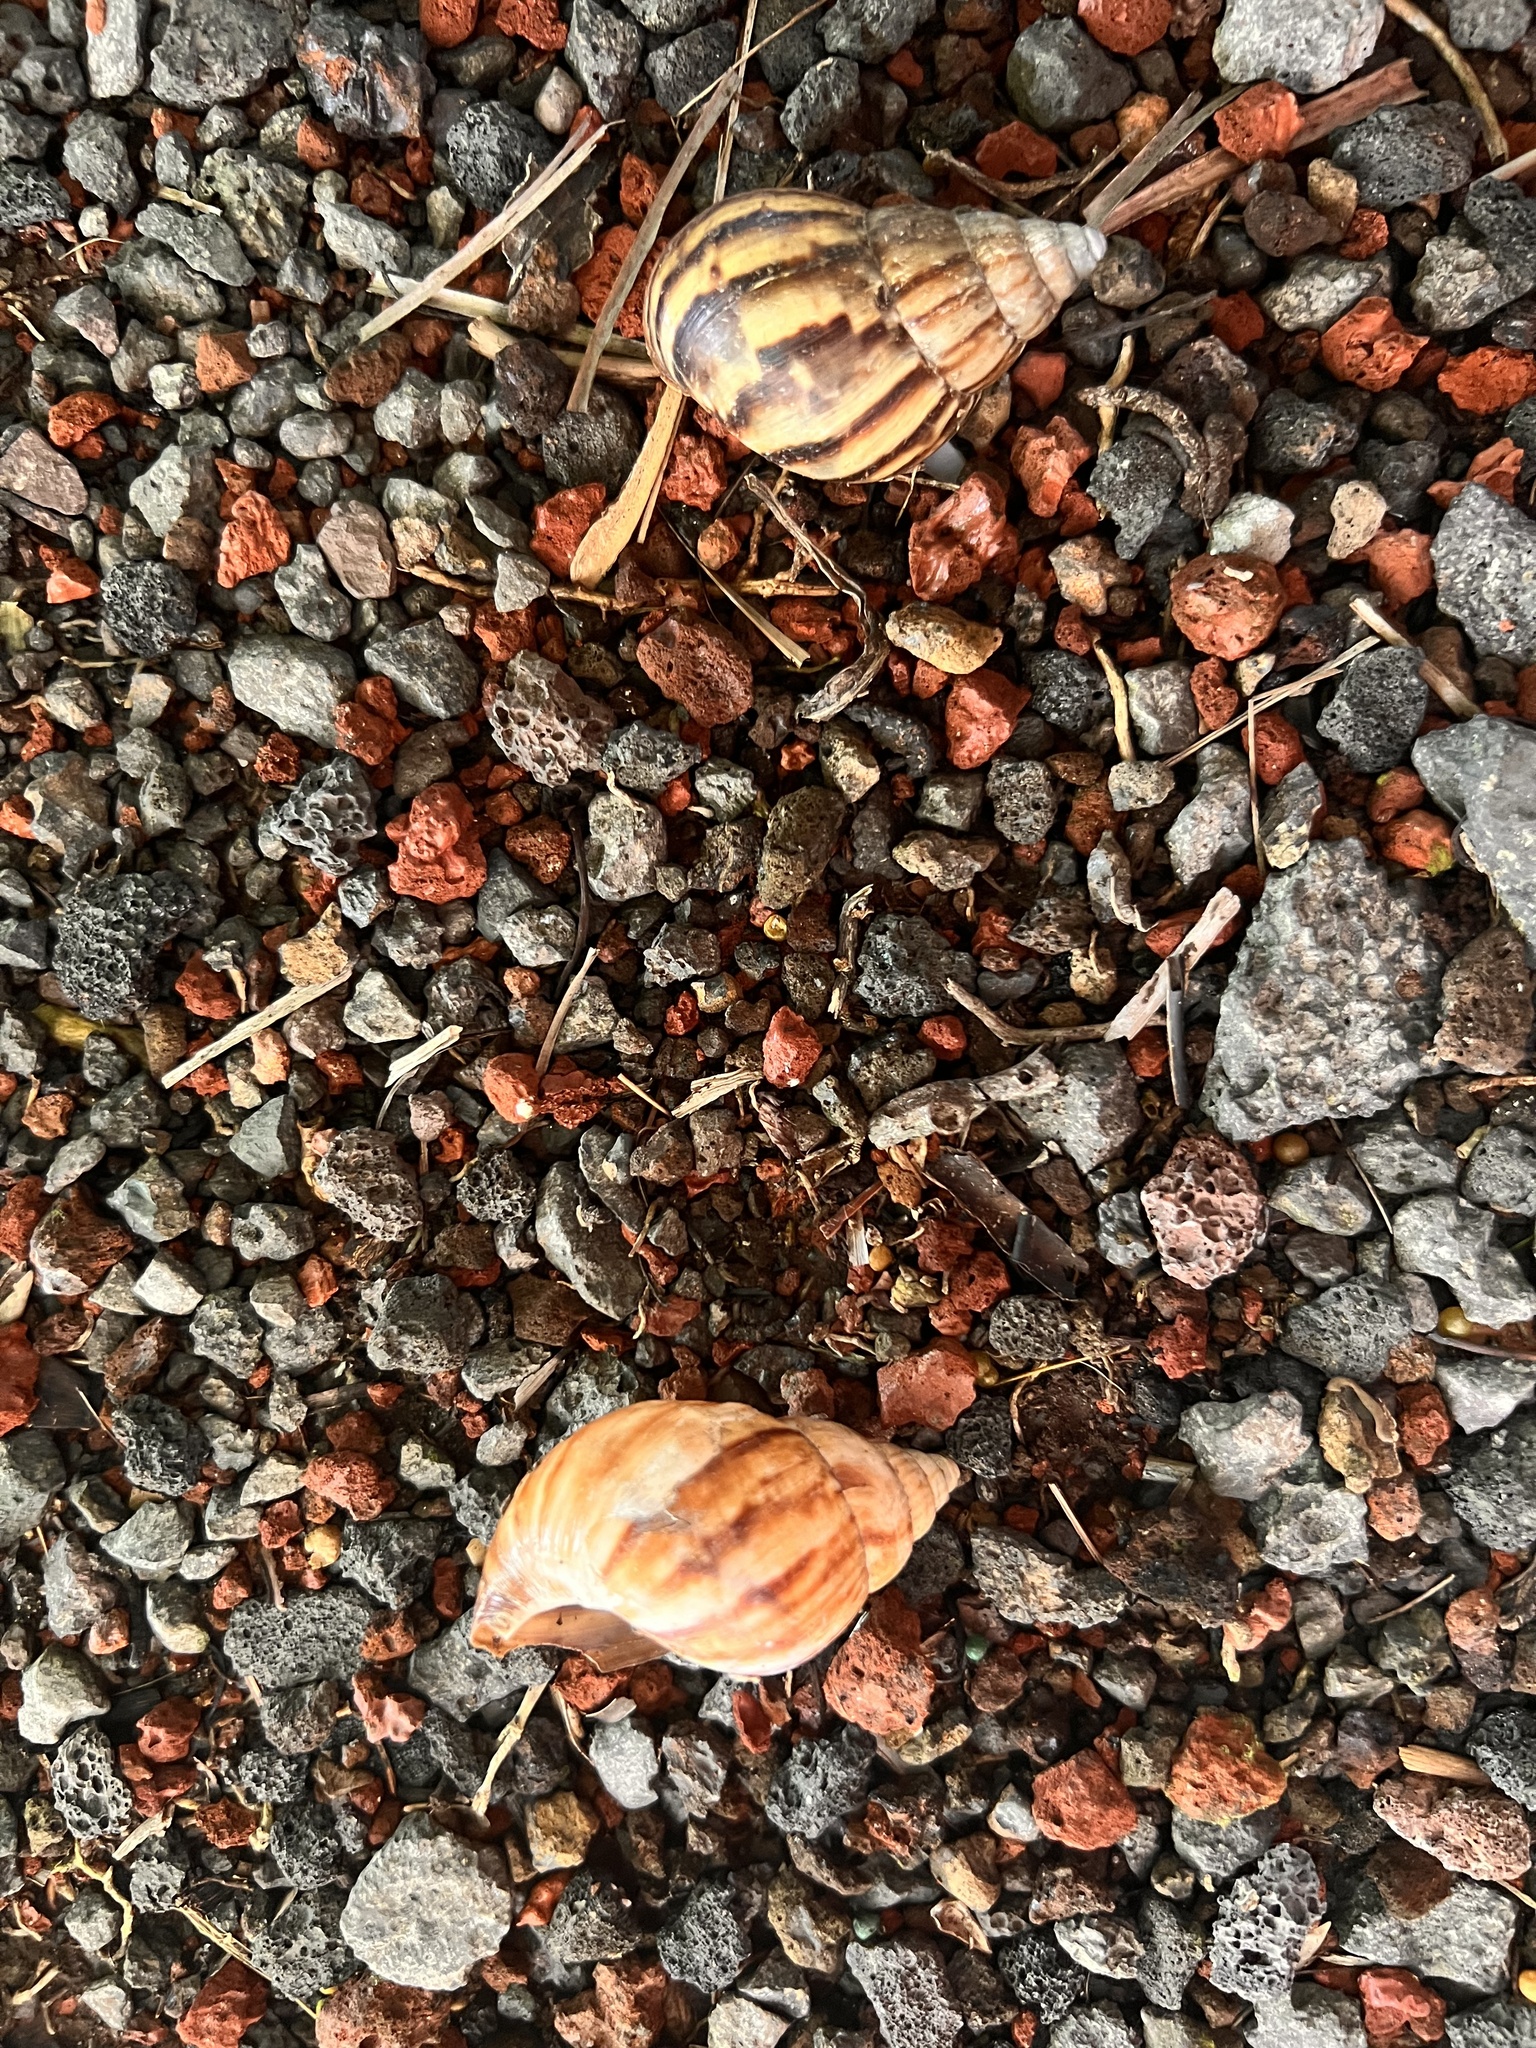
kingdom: Animalia
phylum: Mollusca
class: Gastropoda
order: Stylommatophora
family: Achatinidae
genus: Lissachatina
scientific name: Lissachatina fulica
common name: Giant african snail
